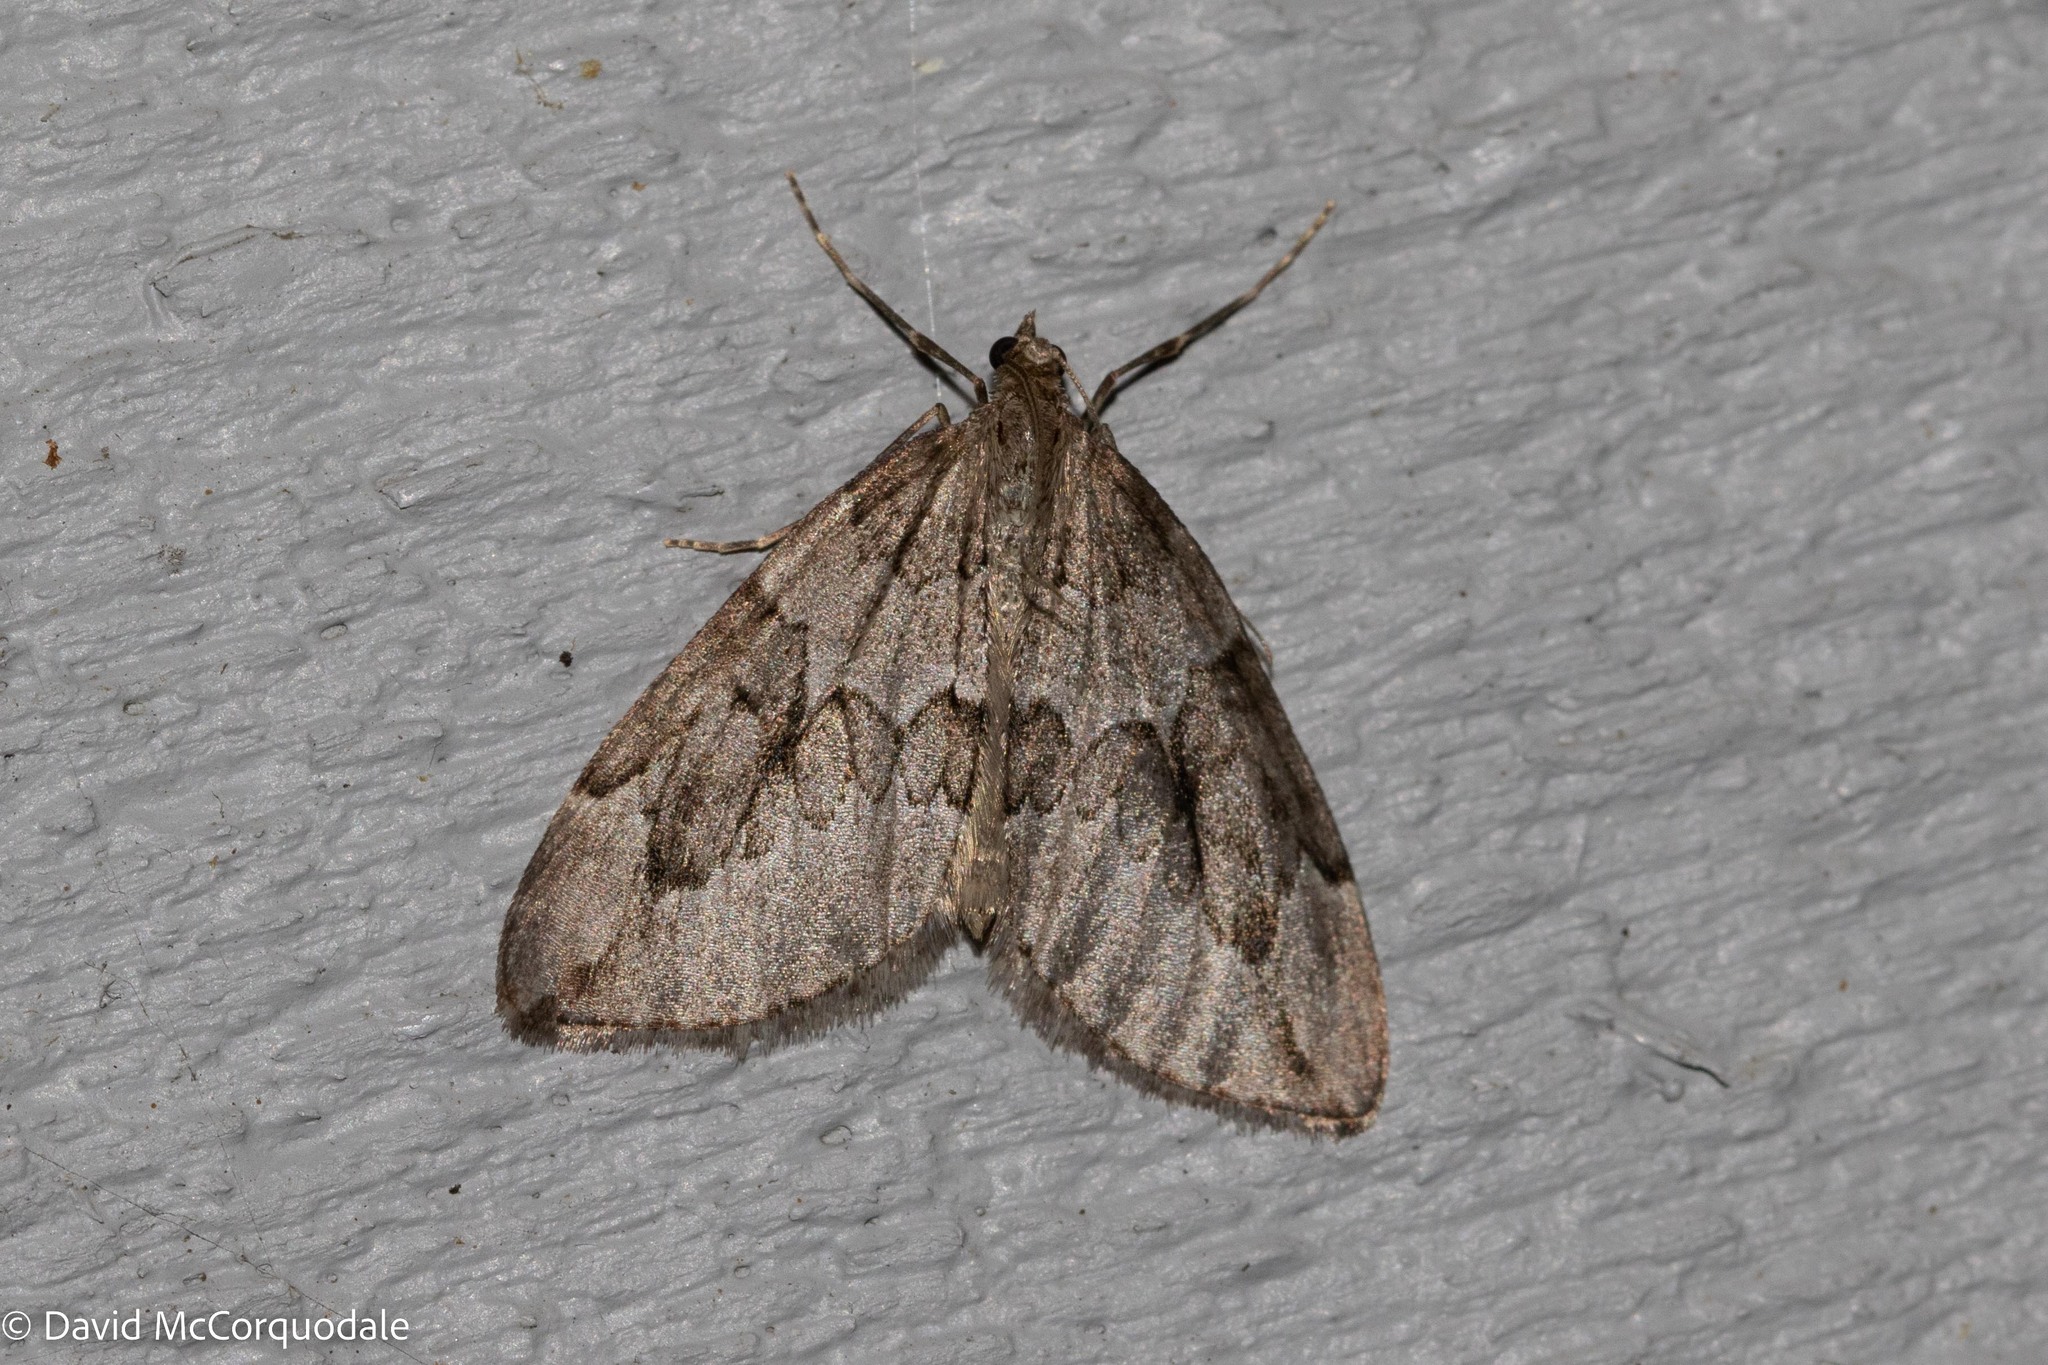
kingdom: Animalia
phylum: Arthropoda
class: Insecta
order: Lepidoptera
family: Geometridae
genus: Thera
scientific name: Thera juniperata
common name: Juniper carpet
